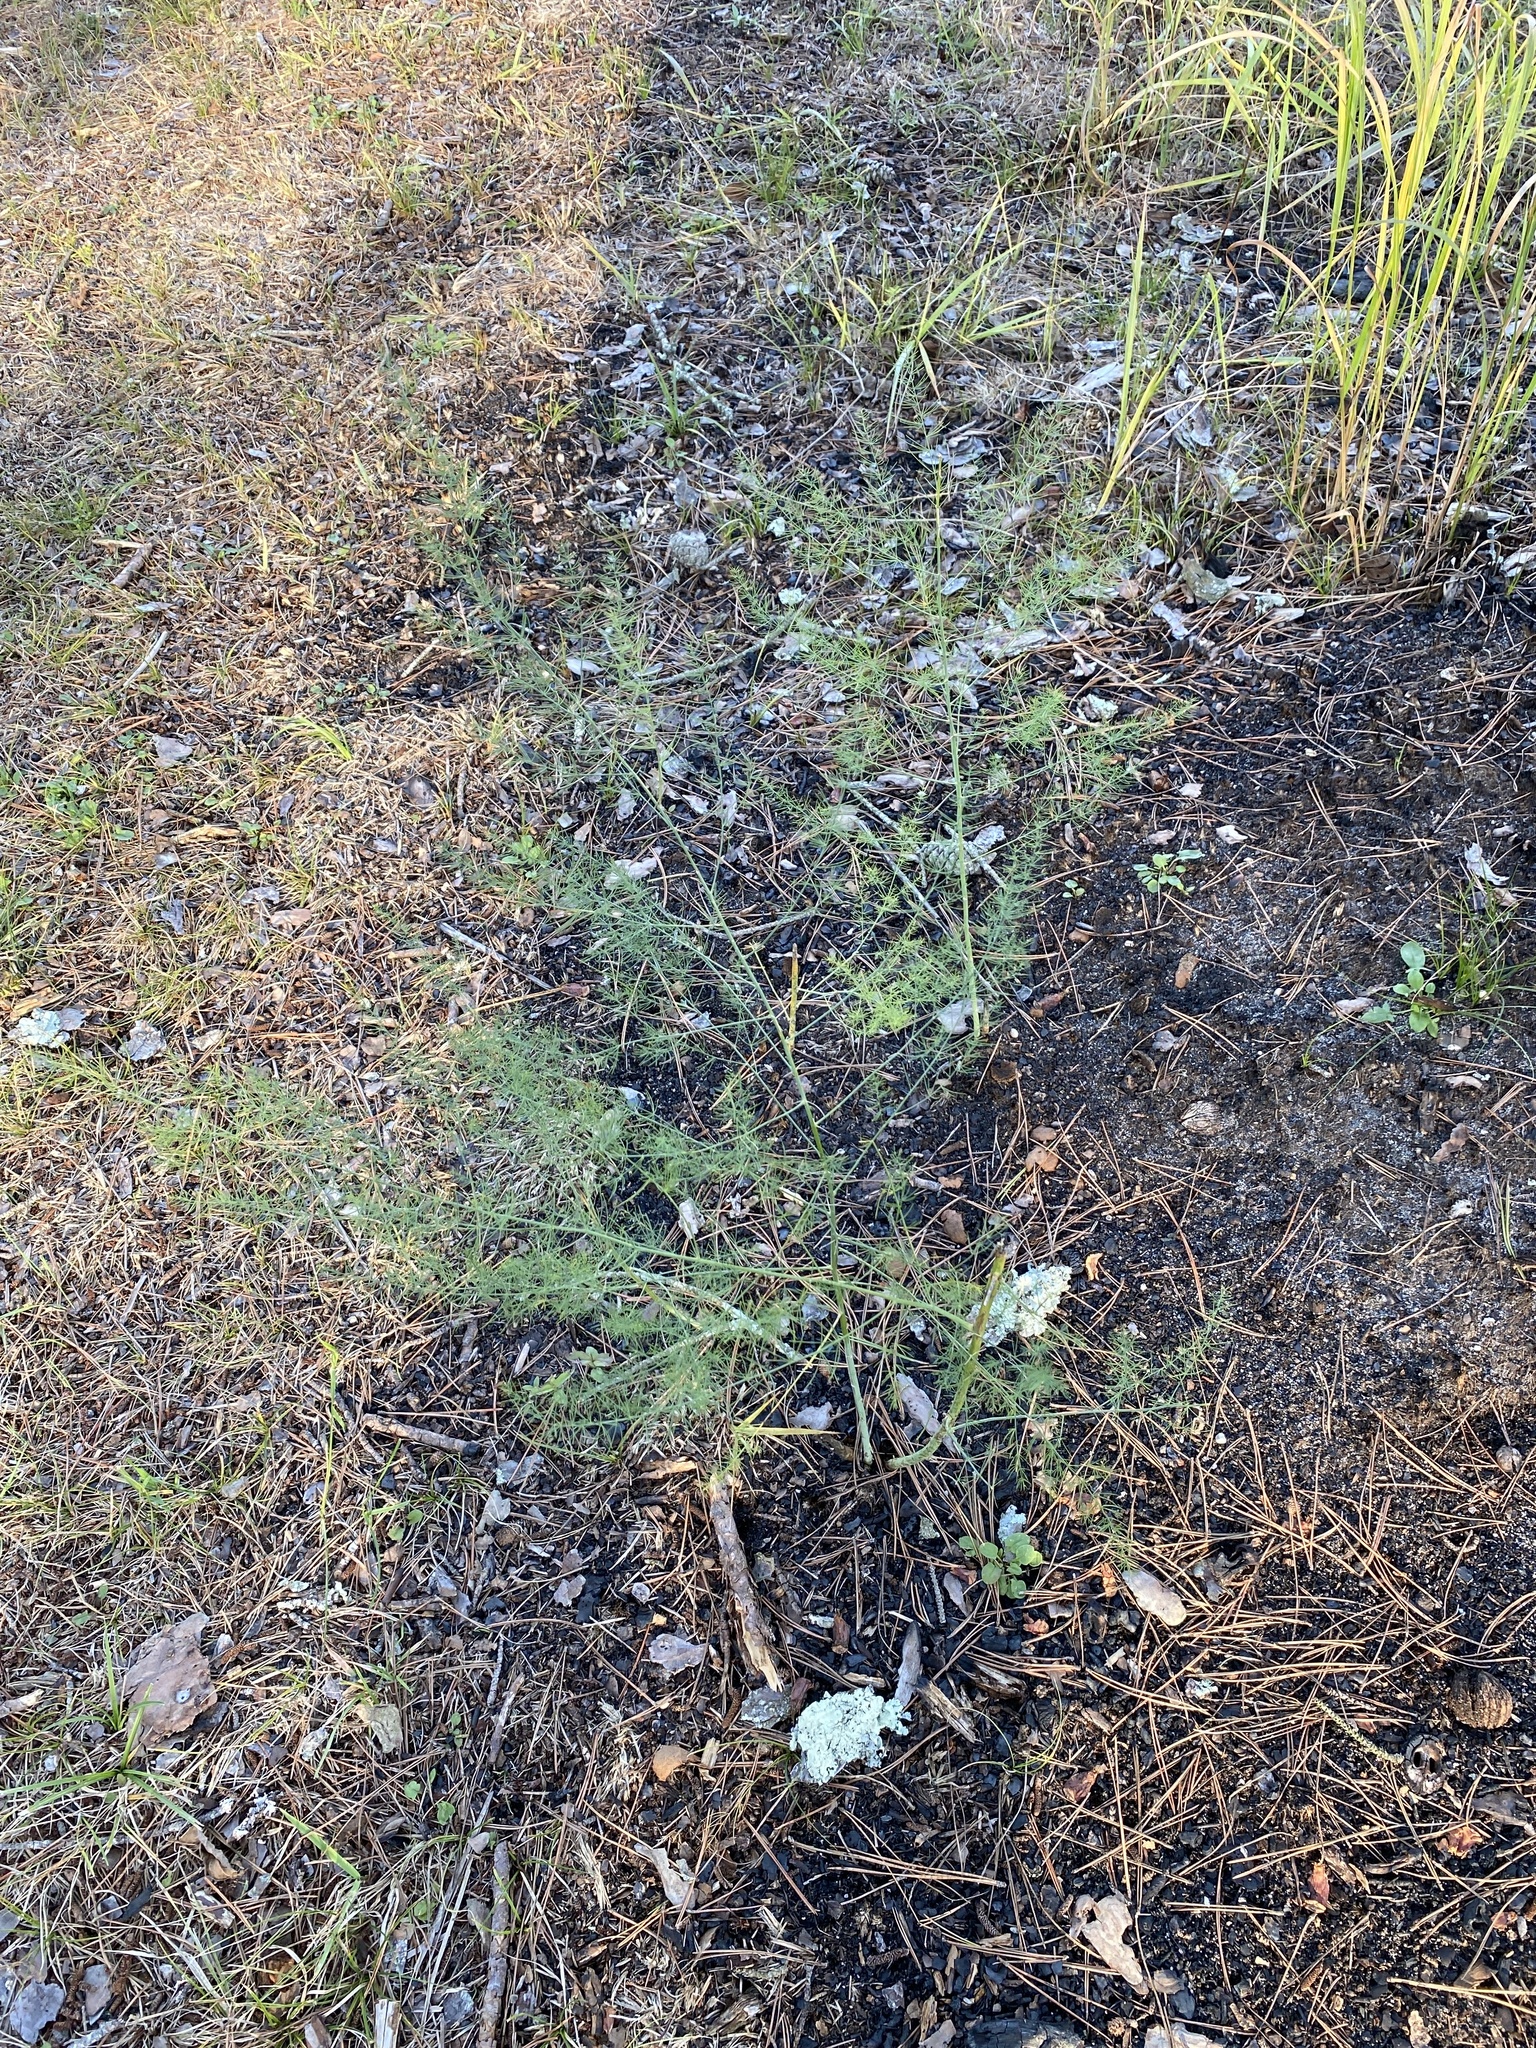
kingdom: Plantae
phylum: Tracheophyta
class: Liliopsida
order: Asparagales
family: Asparagaceae
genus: Asparagus
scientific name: Asparagus officinalis
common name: Garden asparagus
